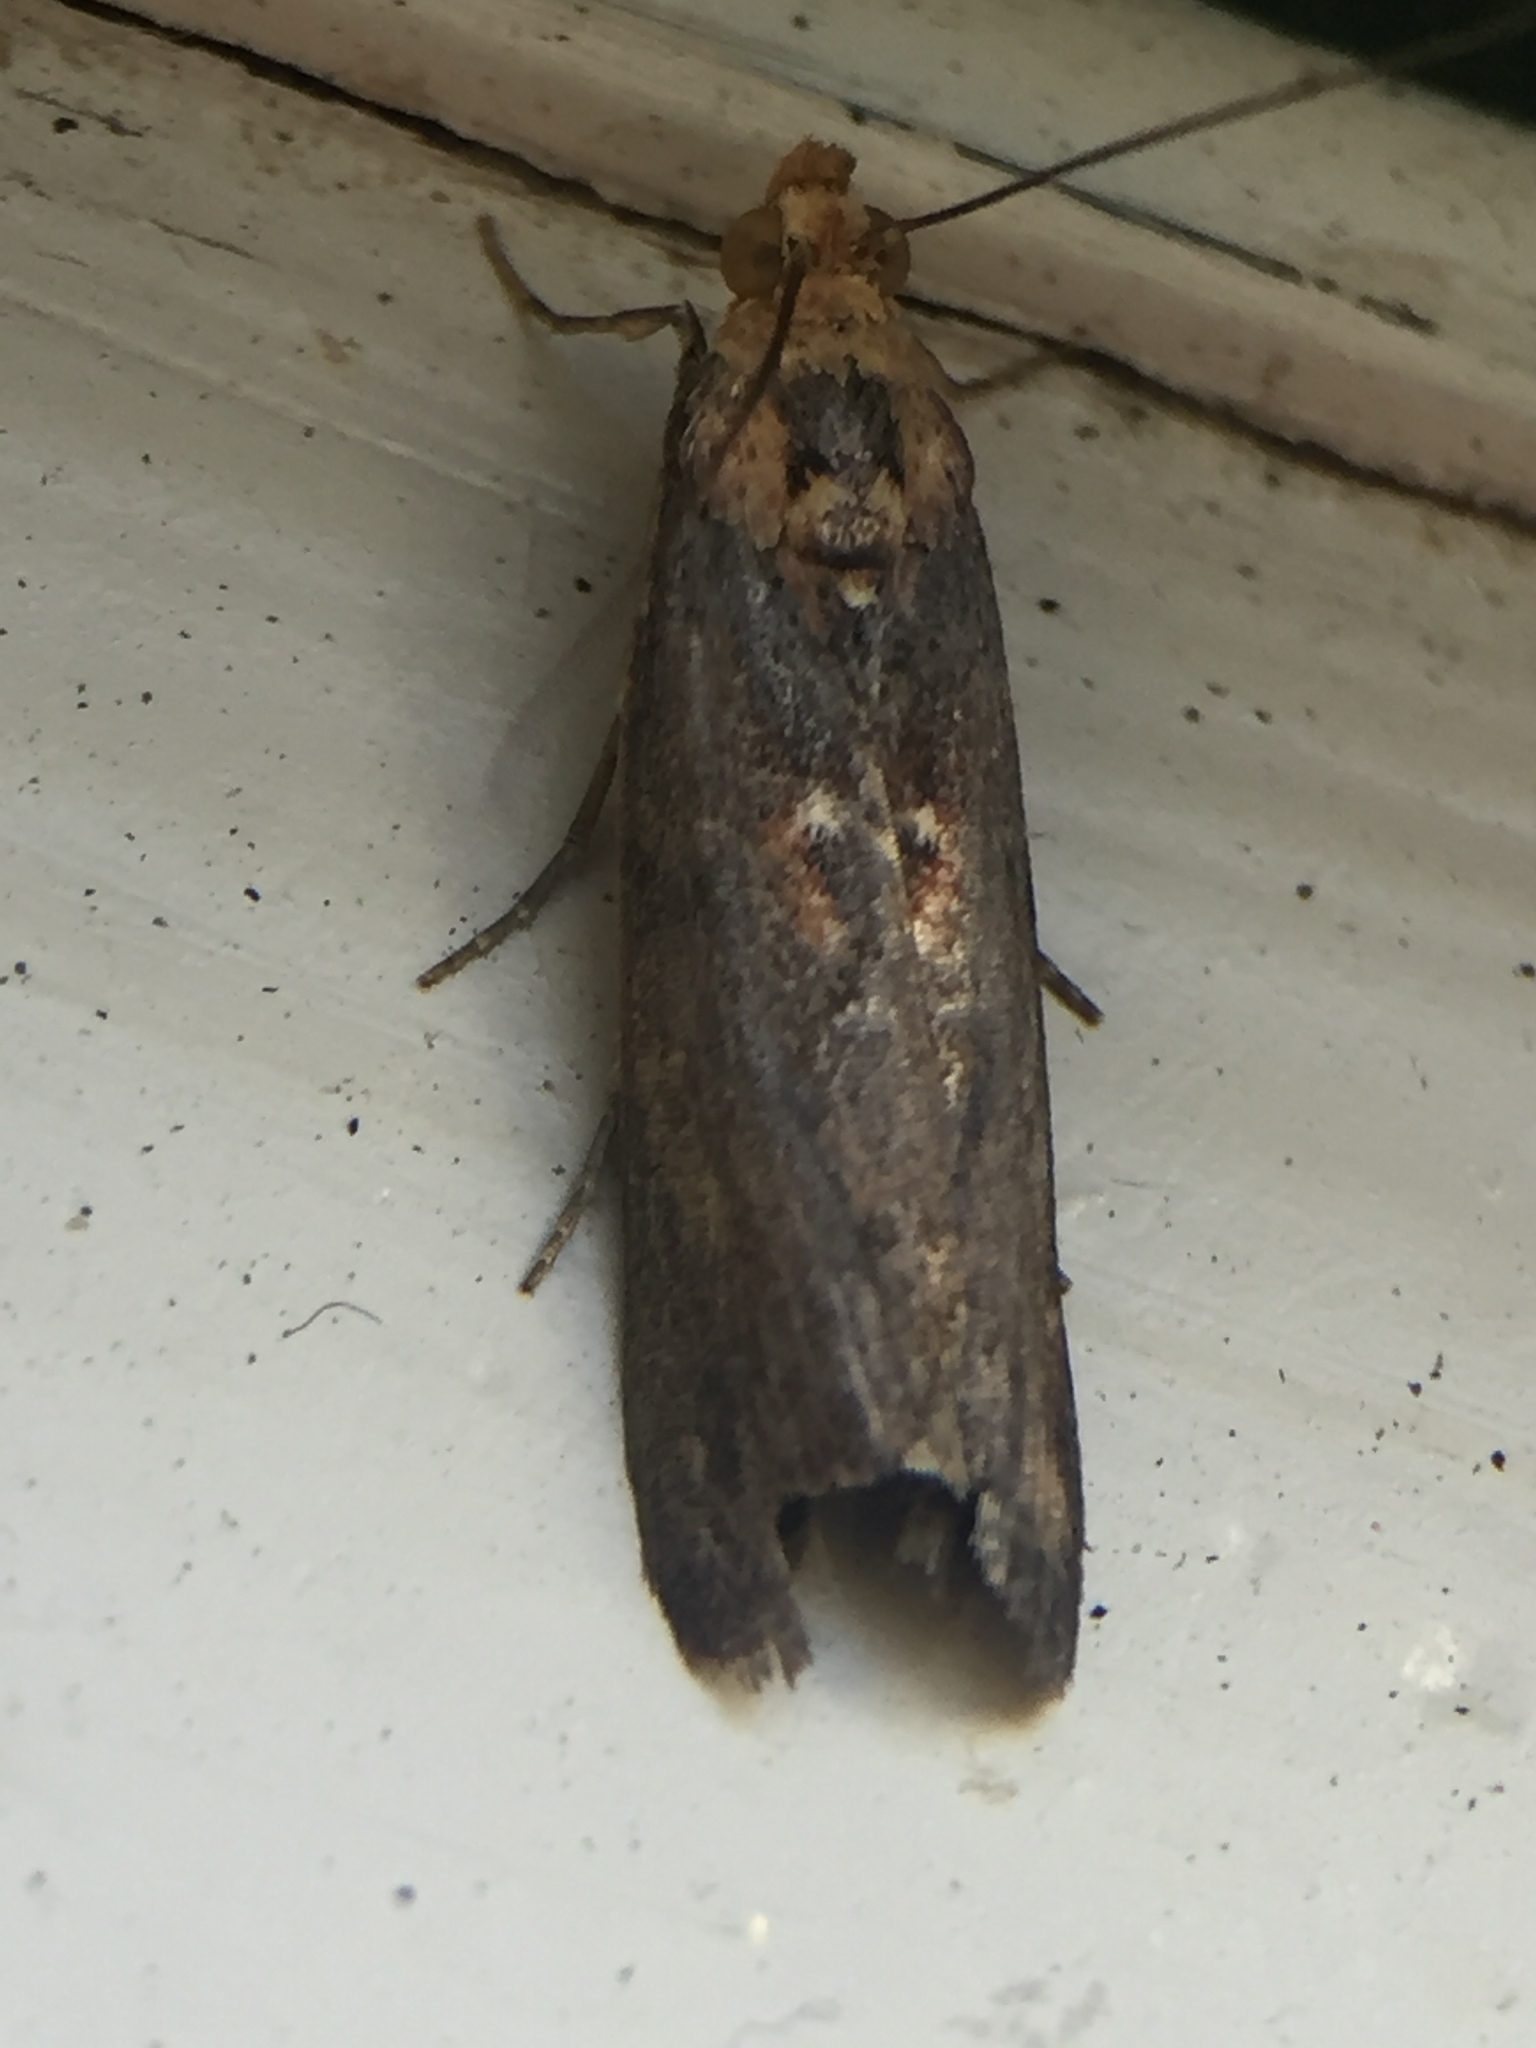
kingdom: Animalia
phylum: Arthropoda
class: Insecta
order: Lepidoptera
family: Pyralidae
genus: Morosaphycita
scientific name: Morosaphycita oculiferella
